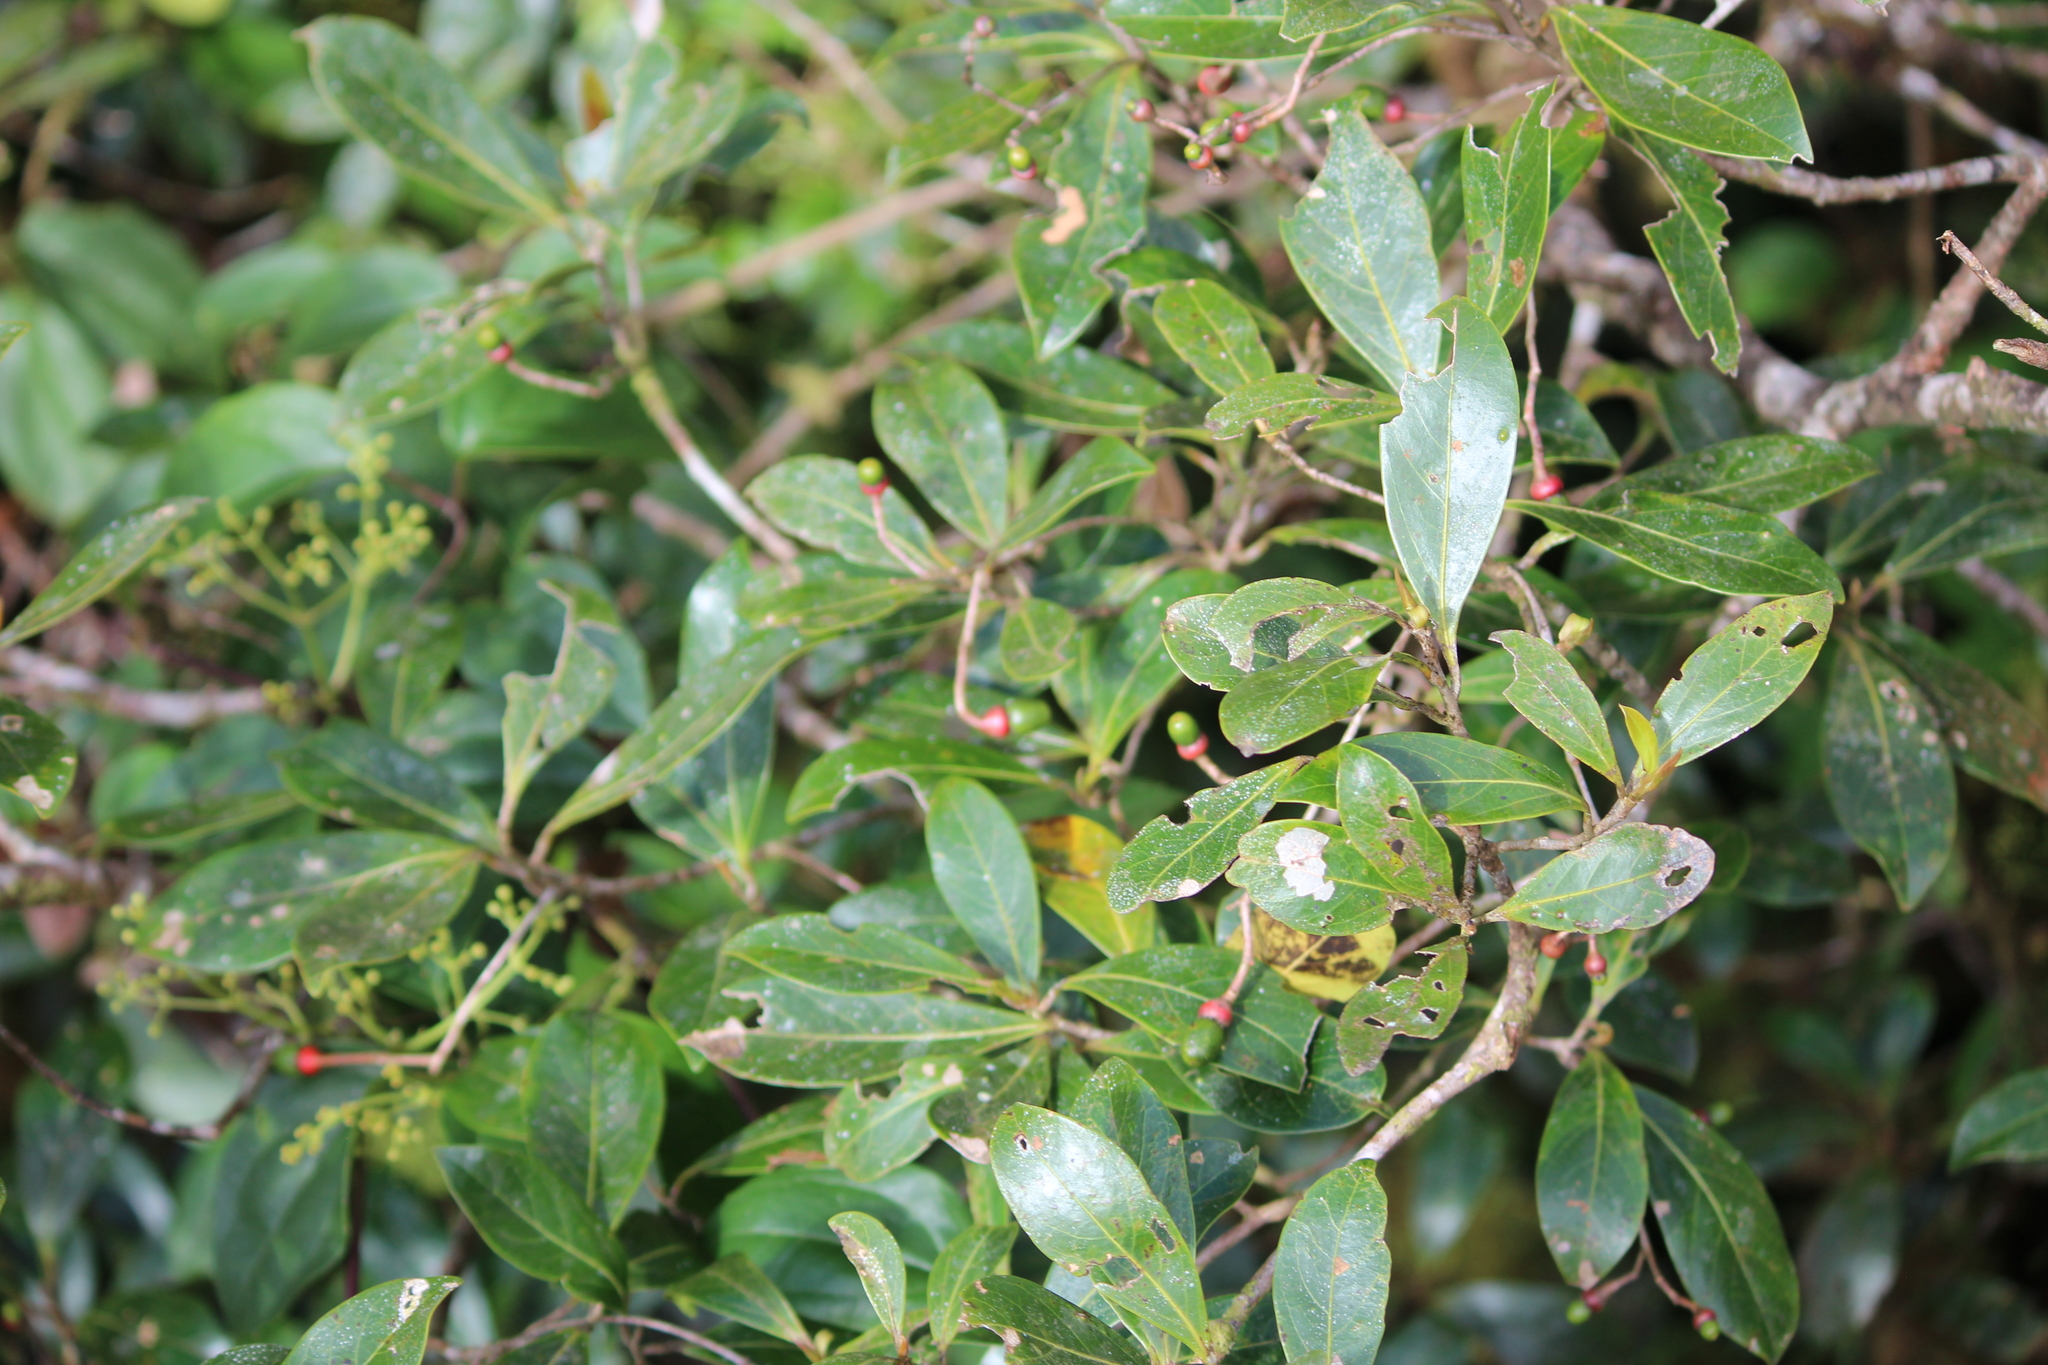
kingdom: Plantae
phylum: Tracheophyta
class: Magnoliopsida
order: Laurales
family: Lauraceae
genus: Ocotea
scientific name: Ocotea insularis
